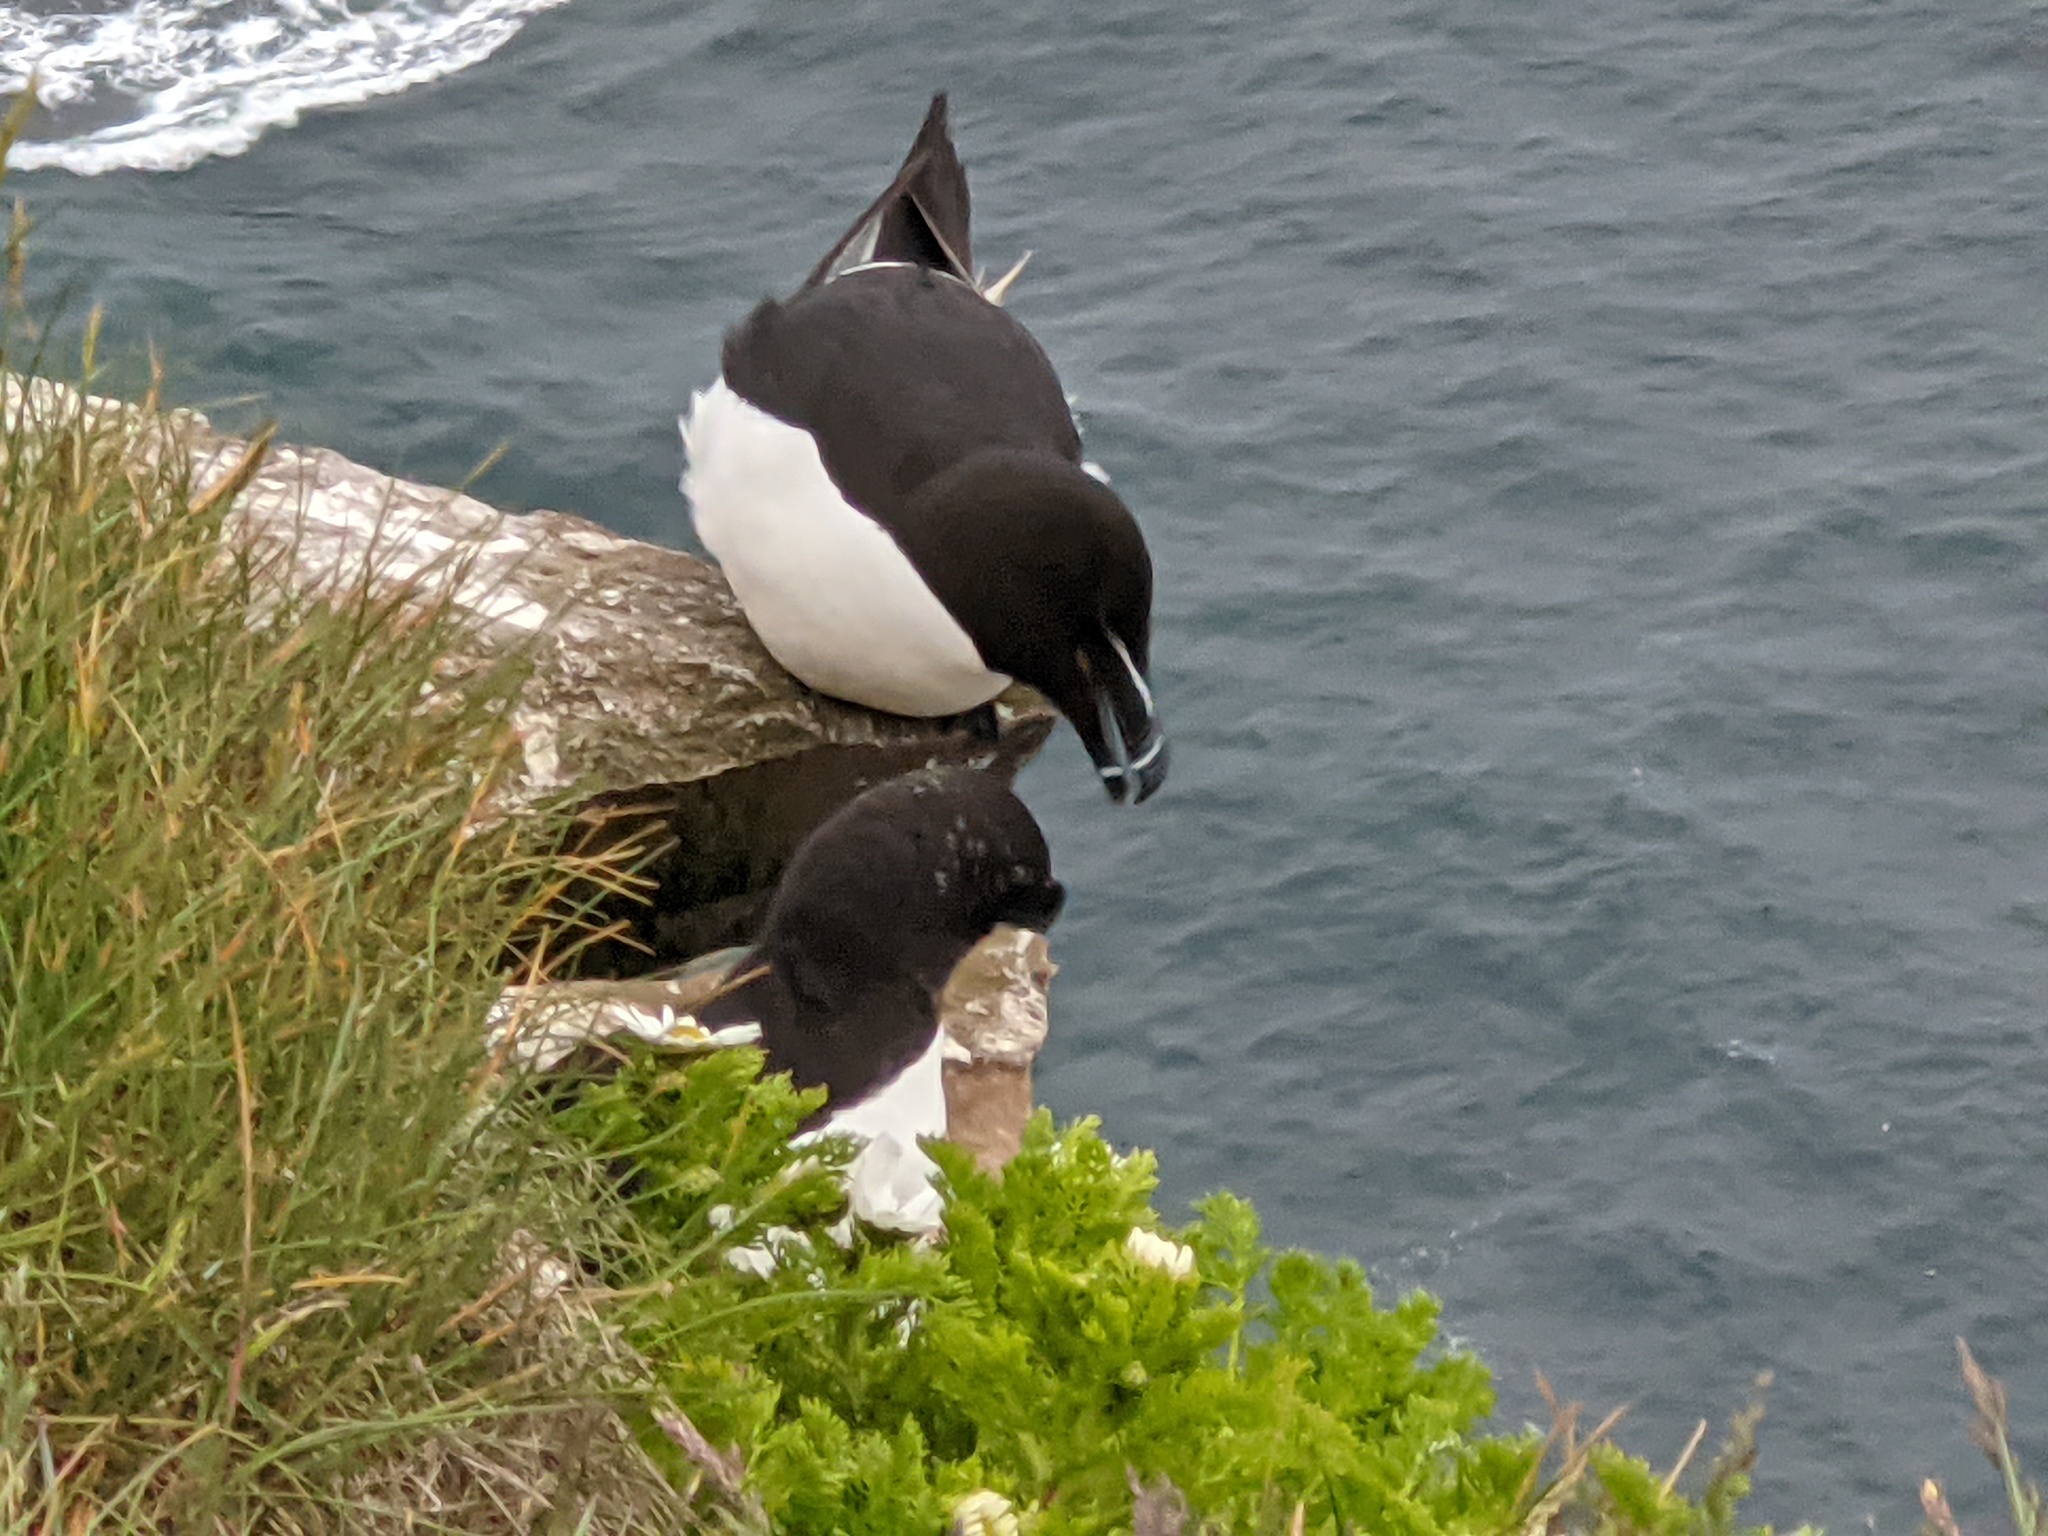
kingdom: Animalia
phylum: Chordata
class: Aves
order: Charadriiformes
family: Alcidae
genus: Alca
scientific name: Alca torda
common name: Razorbill
